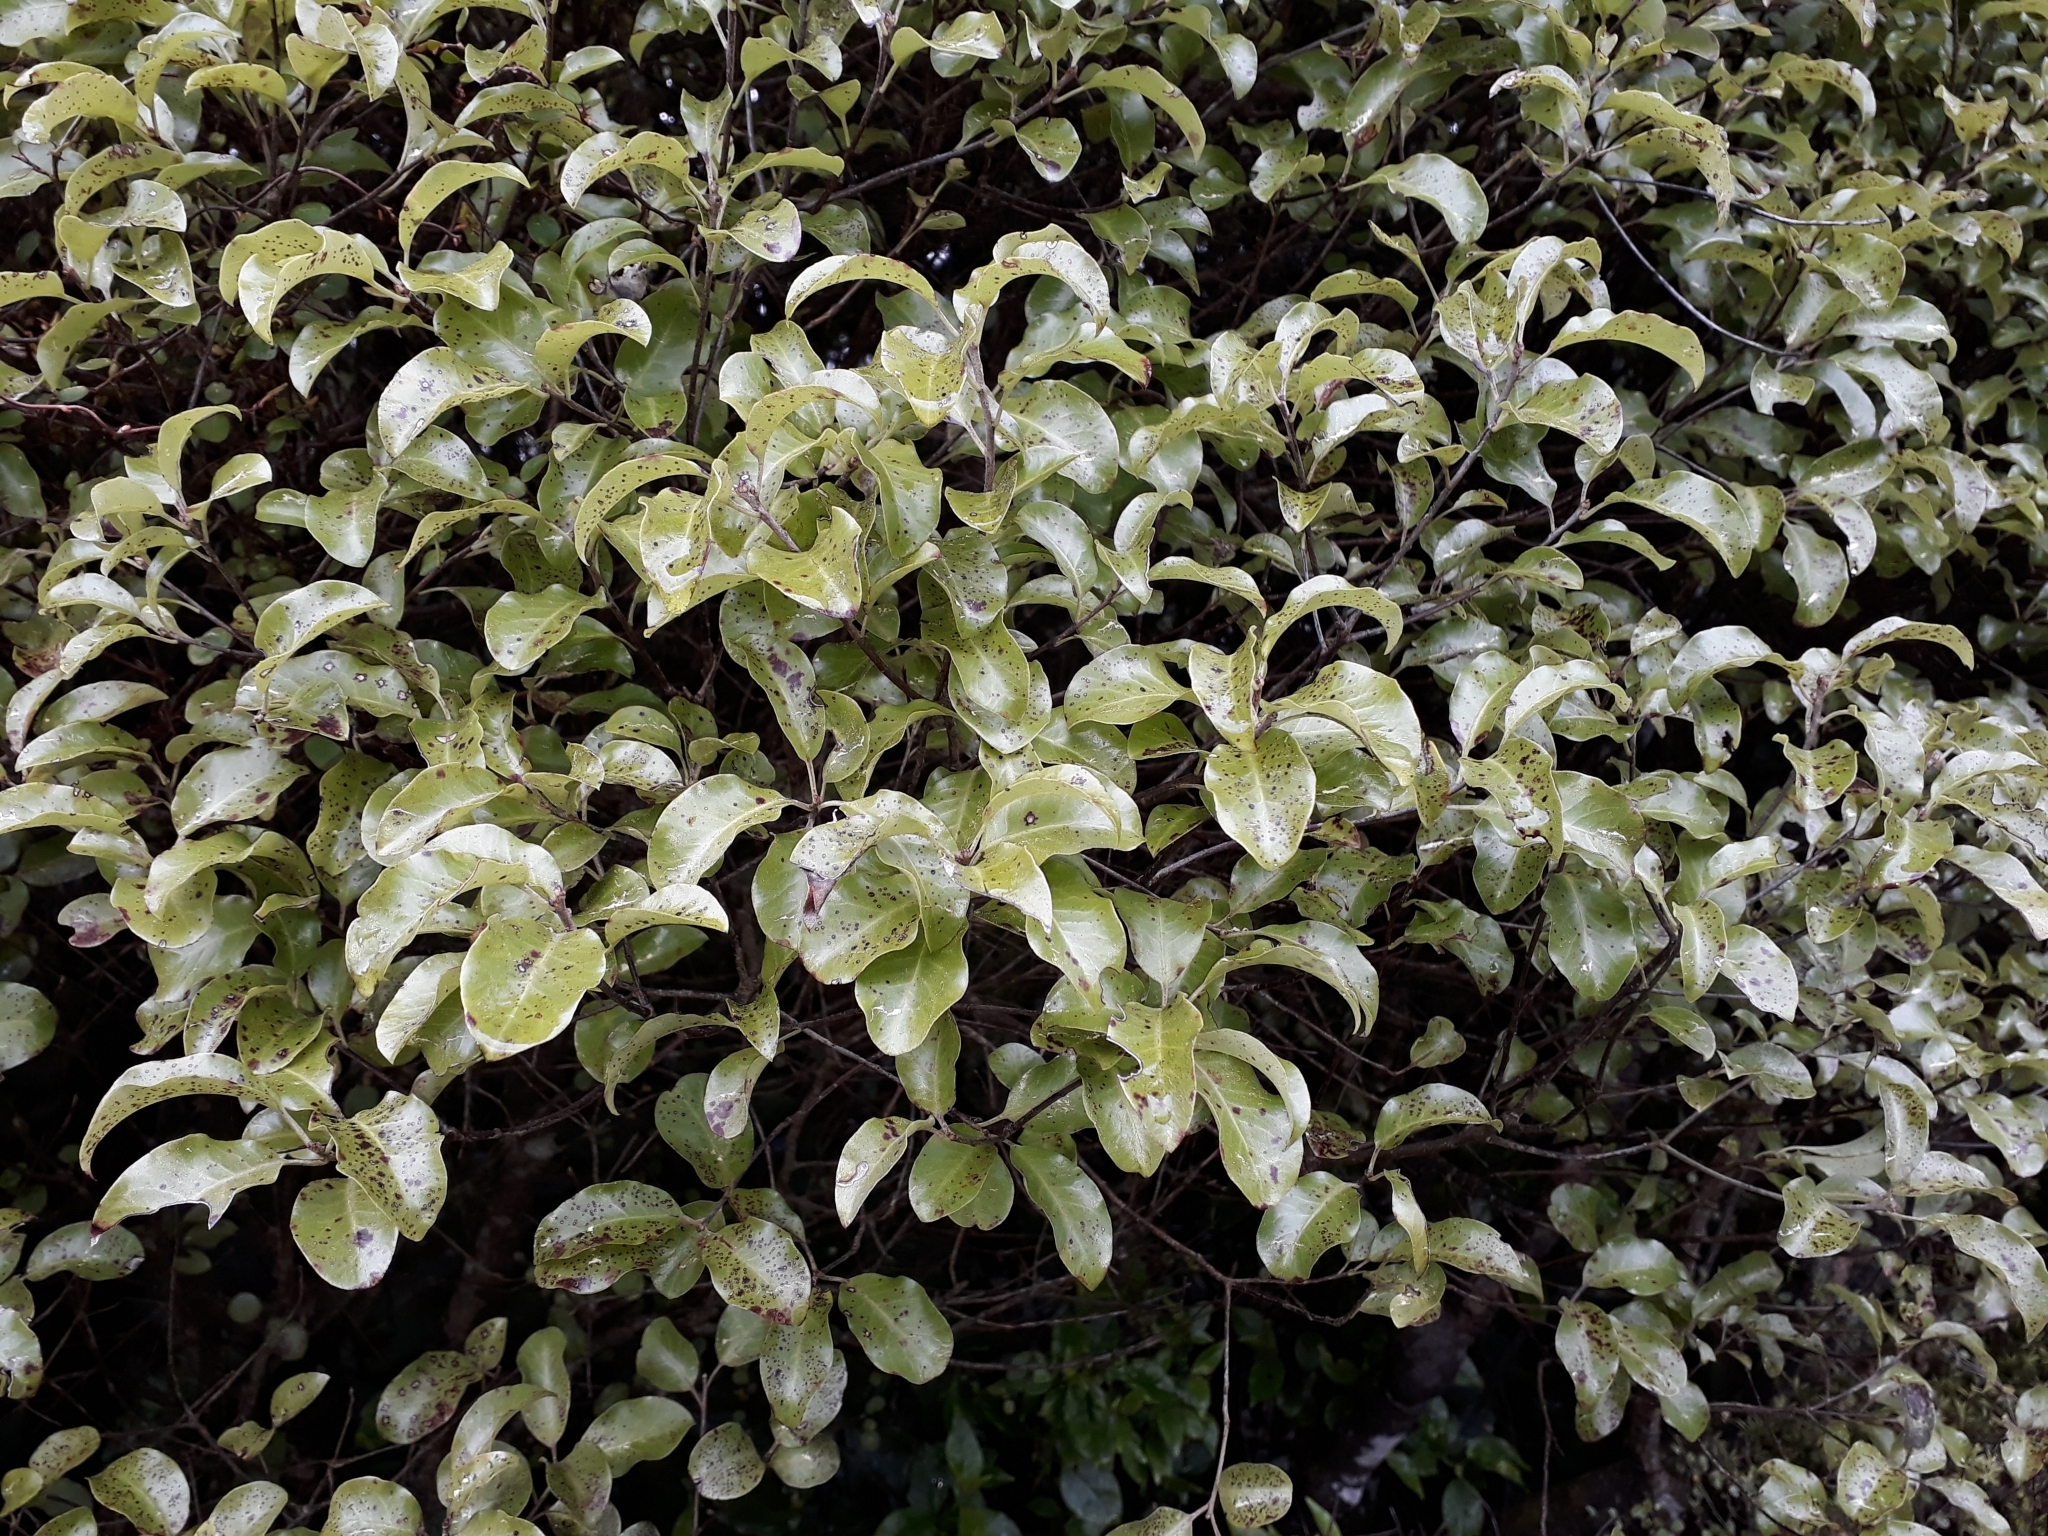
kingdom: Plantae
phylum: Tracheophyta
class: Magnoliopsida
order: Apiales
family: Pittosporaceae
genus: Pittosporum
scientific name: Pittosporum tenuifolium
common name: Kohuhu
